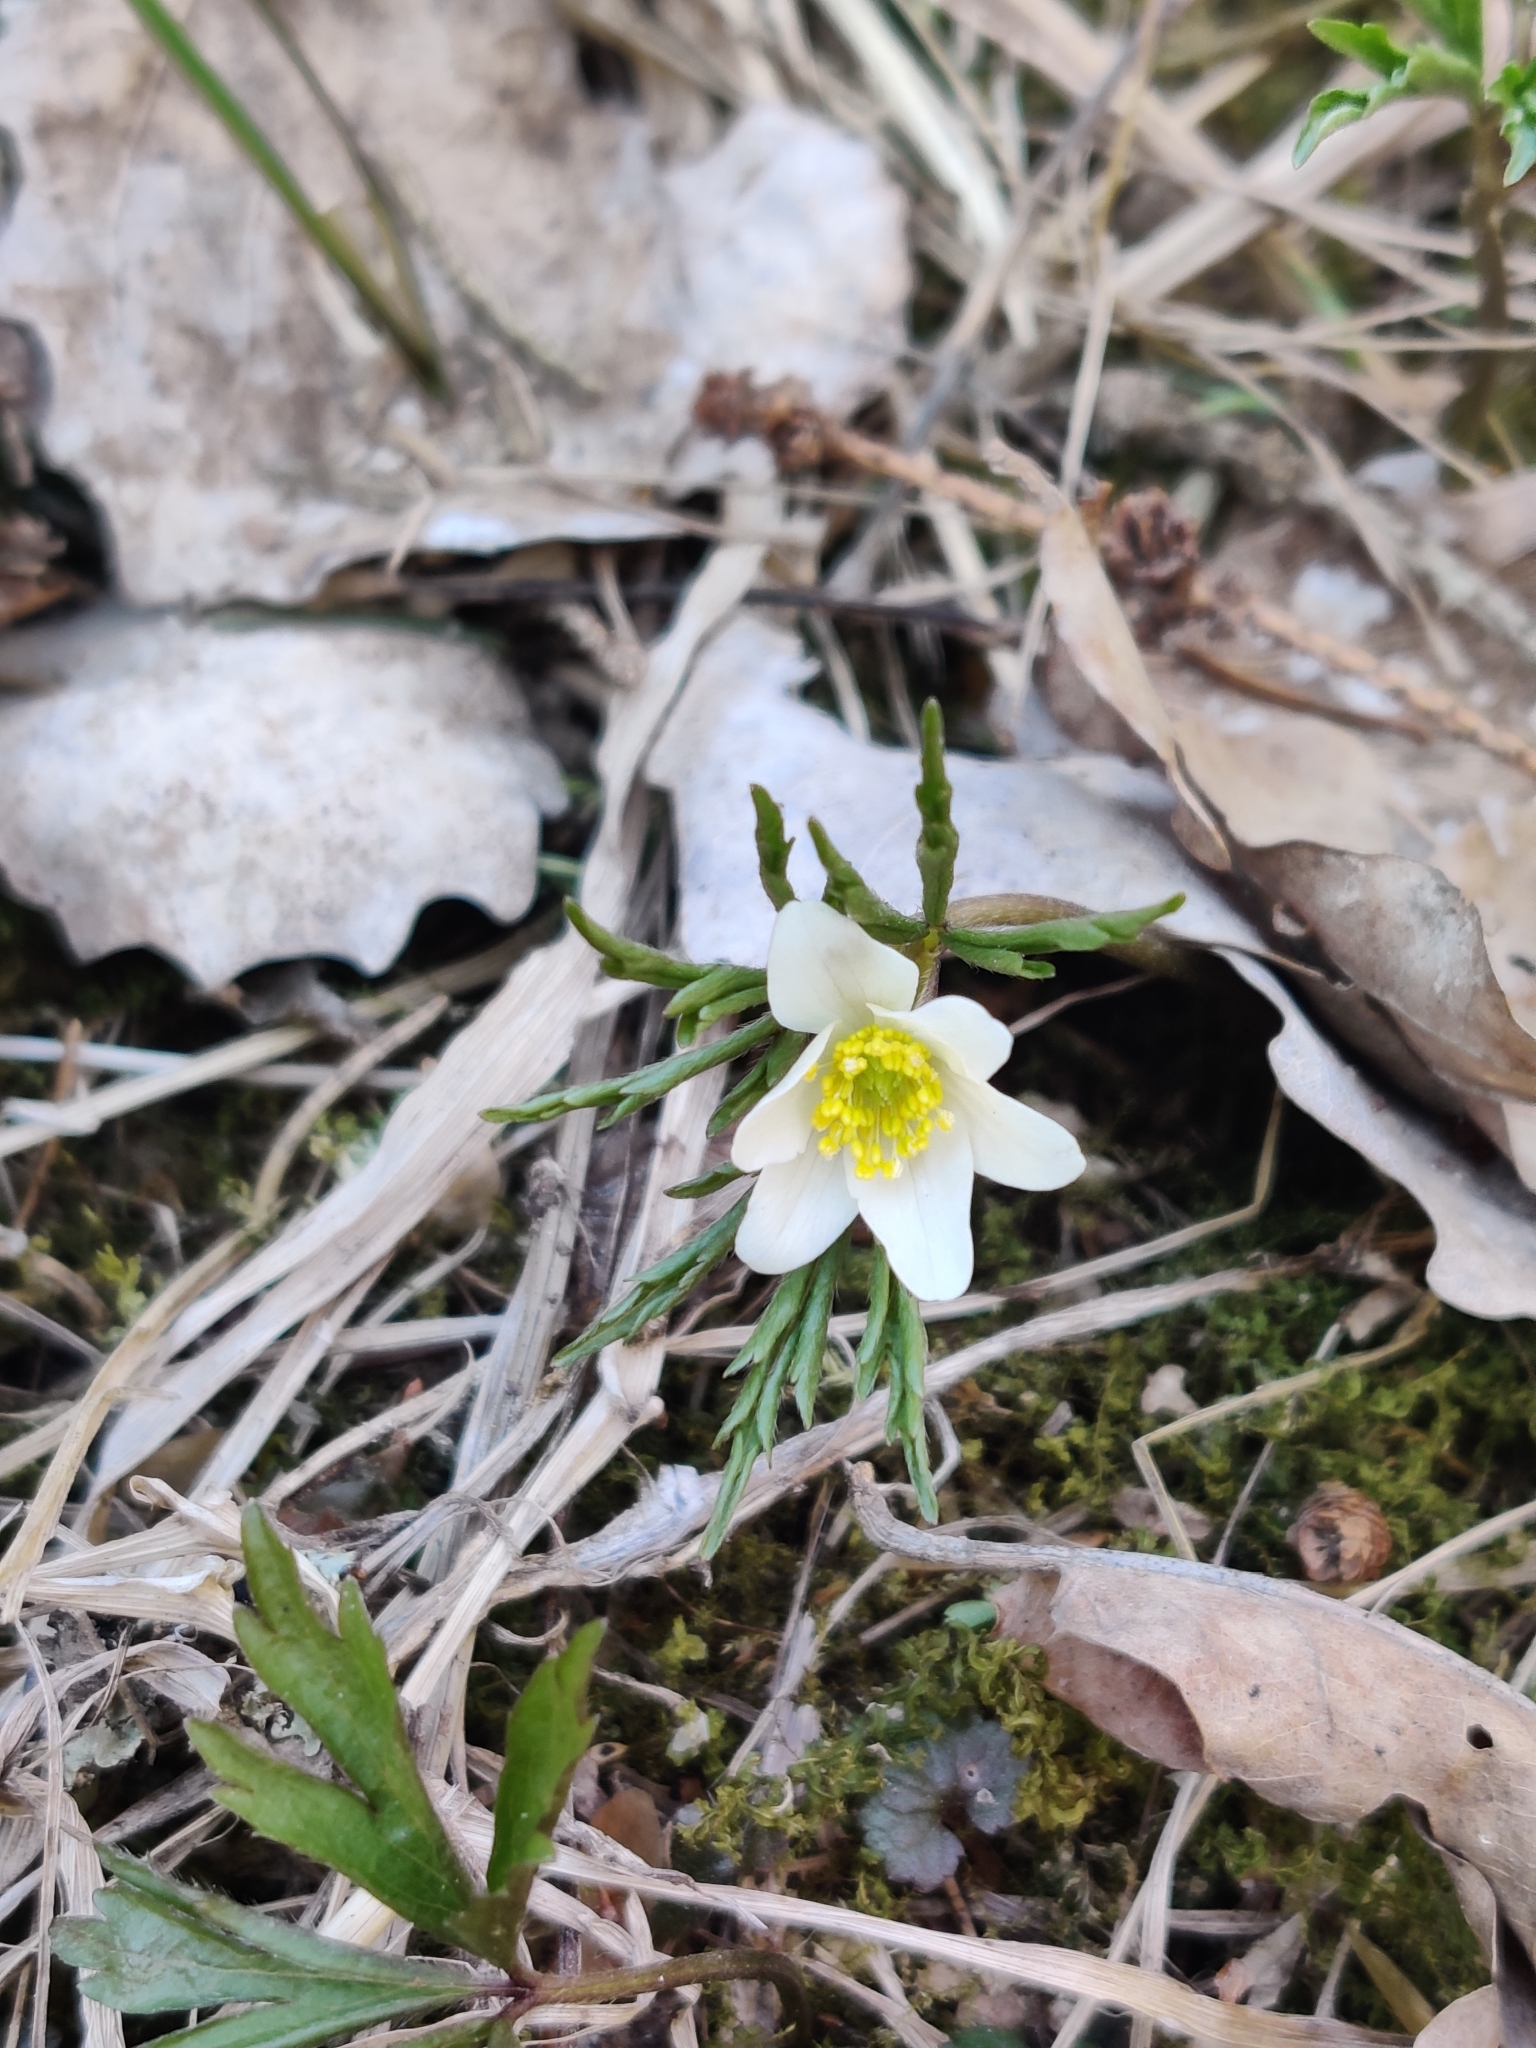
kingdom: Plantae
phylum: Tracheophyta
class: Magnoliopsida
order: Ranunculales
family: Ranunculaceae
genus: Anemone
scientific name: Anemone nemorosa
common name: Wood anemone
